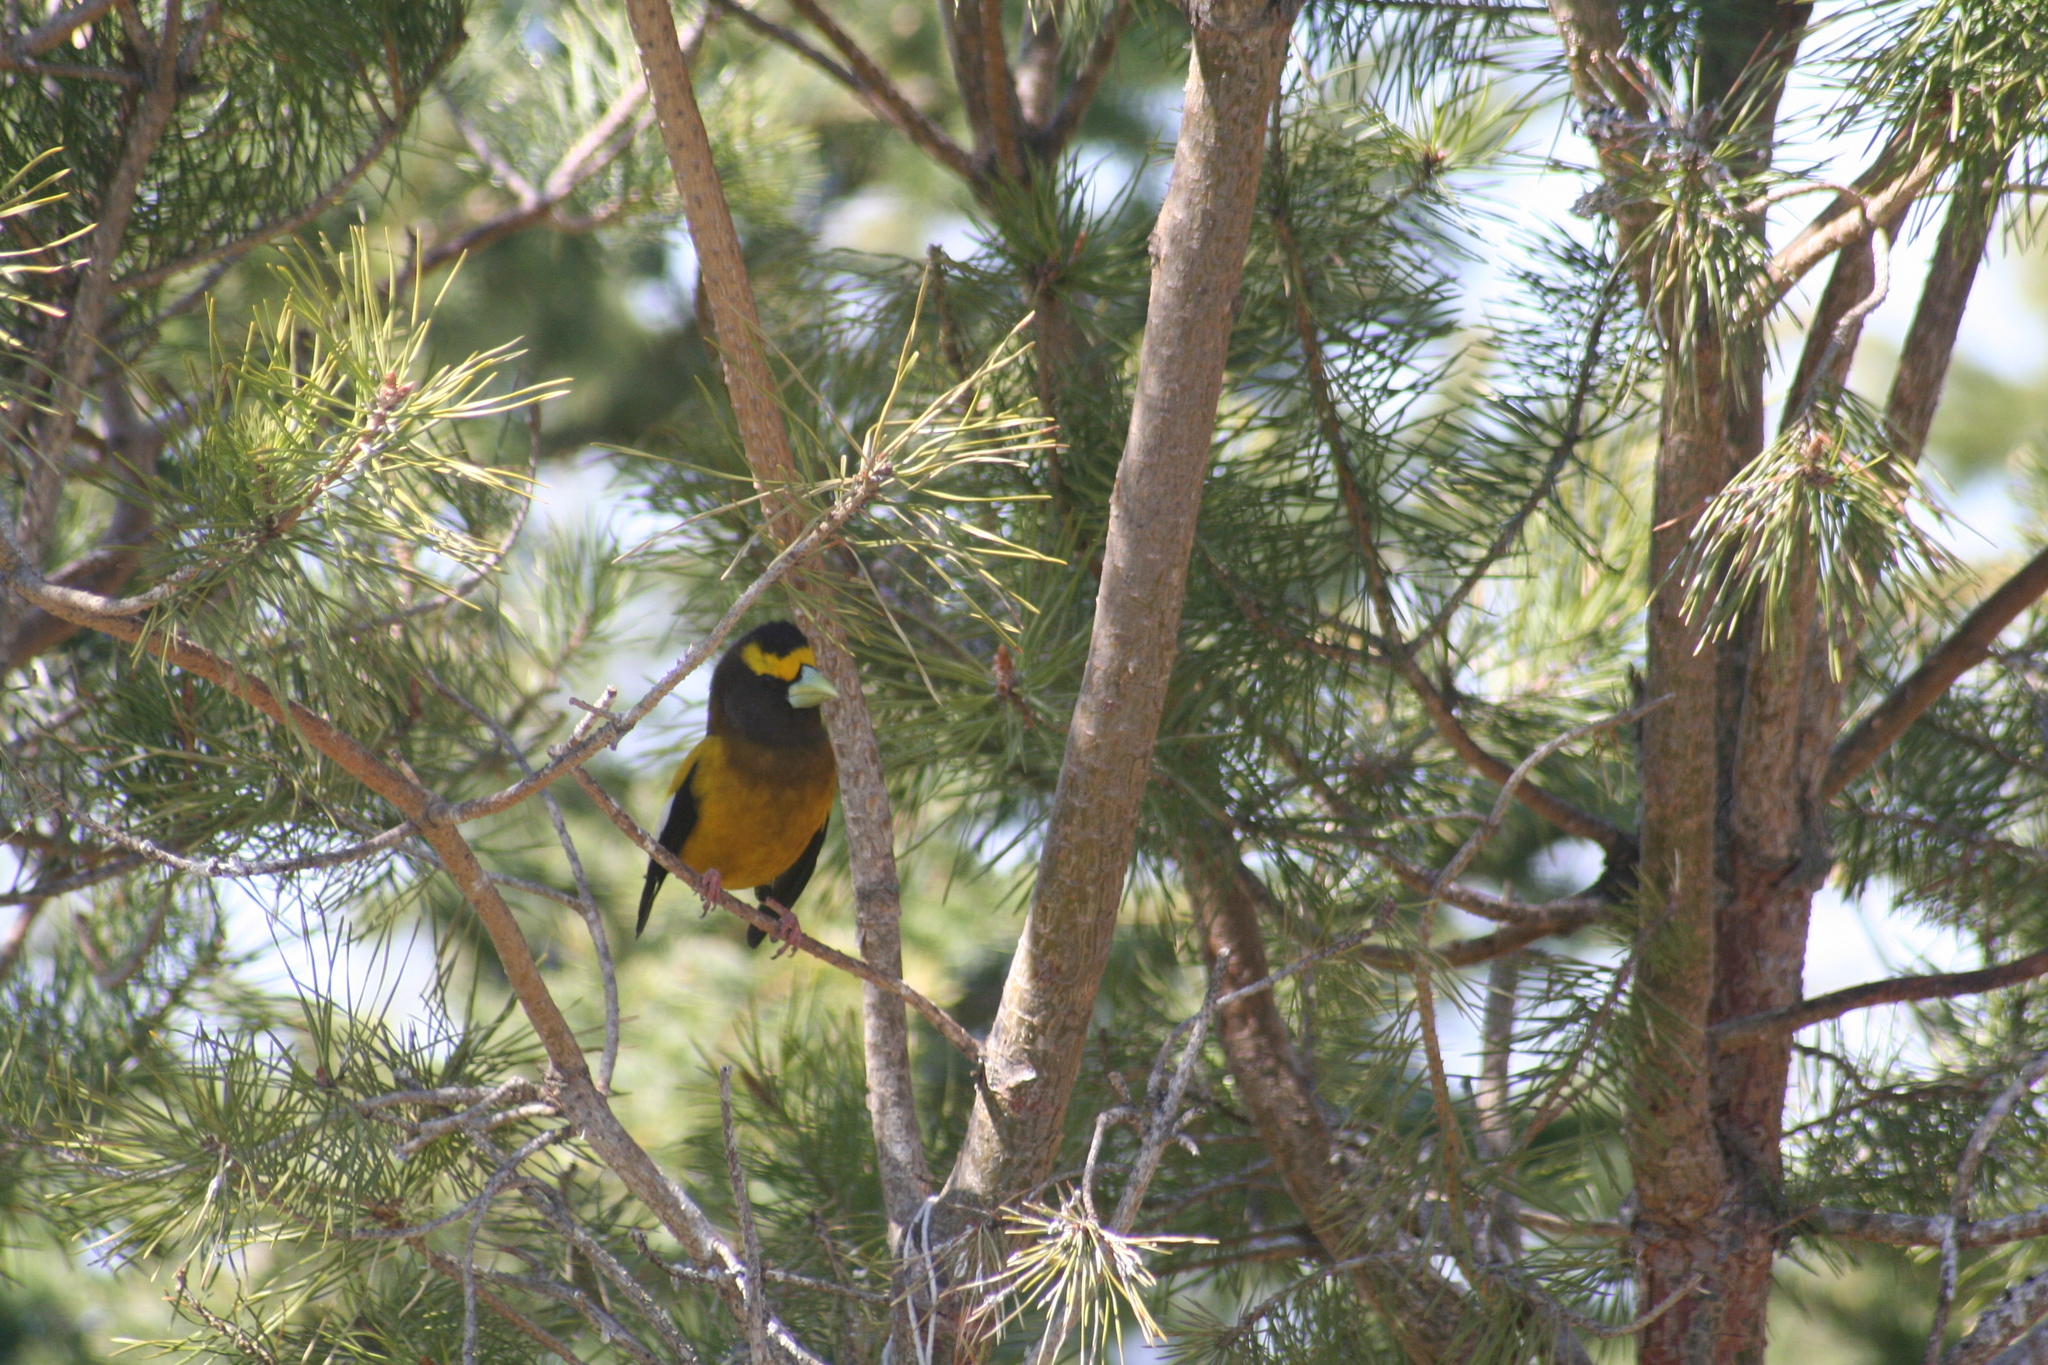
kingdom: Animalia
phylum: Chordata
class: Aves
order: Passeriformes
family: Fringillidae
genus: Hesperiphona
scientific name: Hesperiphona vespertina
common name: Evening grosbeak
